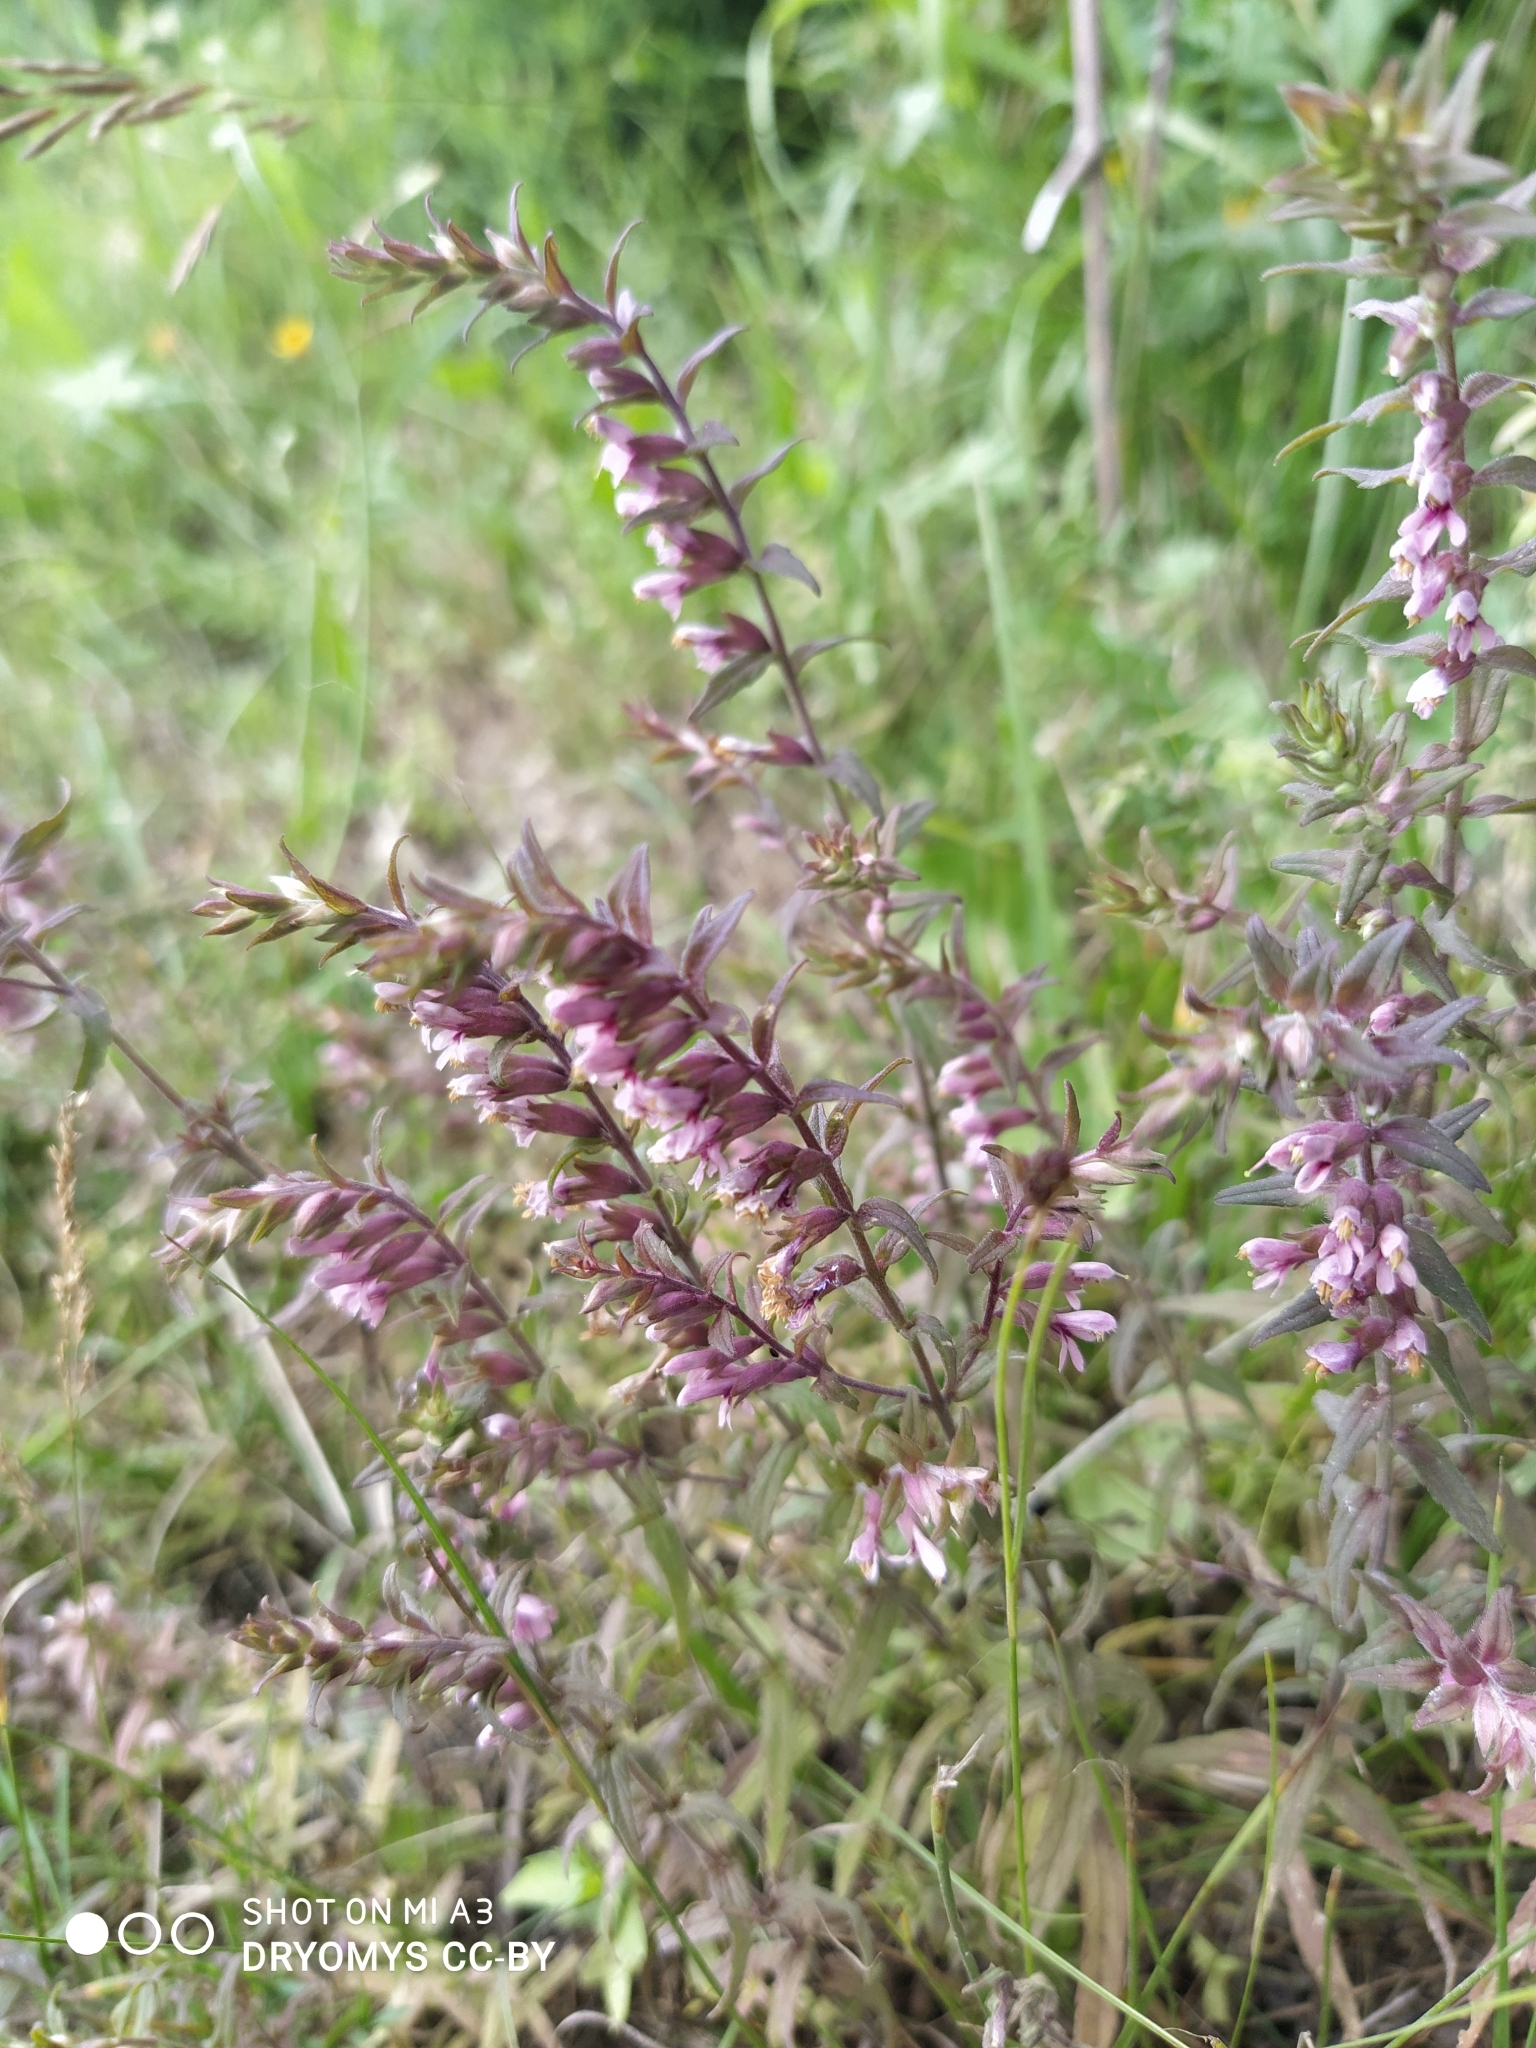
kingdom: Plantae
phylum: Tracheophyta
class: Magnoliopsida
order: Lamiales
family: Orobanchaceae
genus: Odontites
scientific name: Odontites vulgaris
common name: Broomrape
